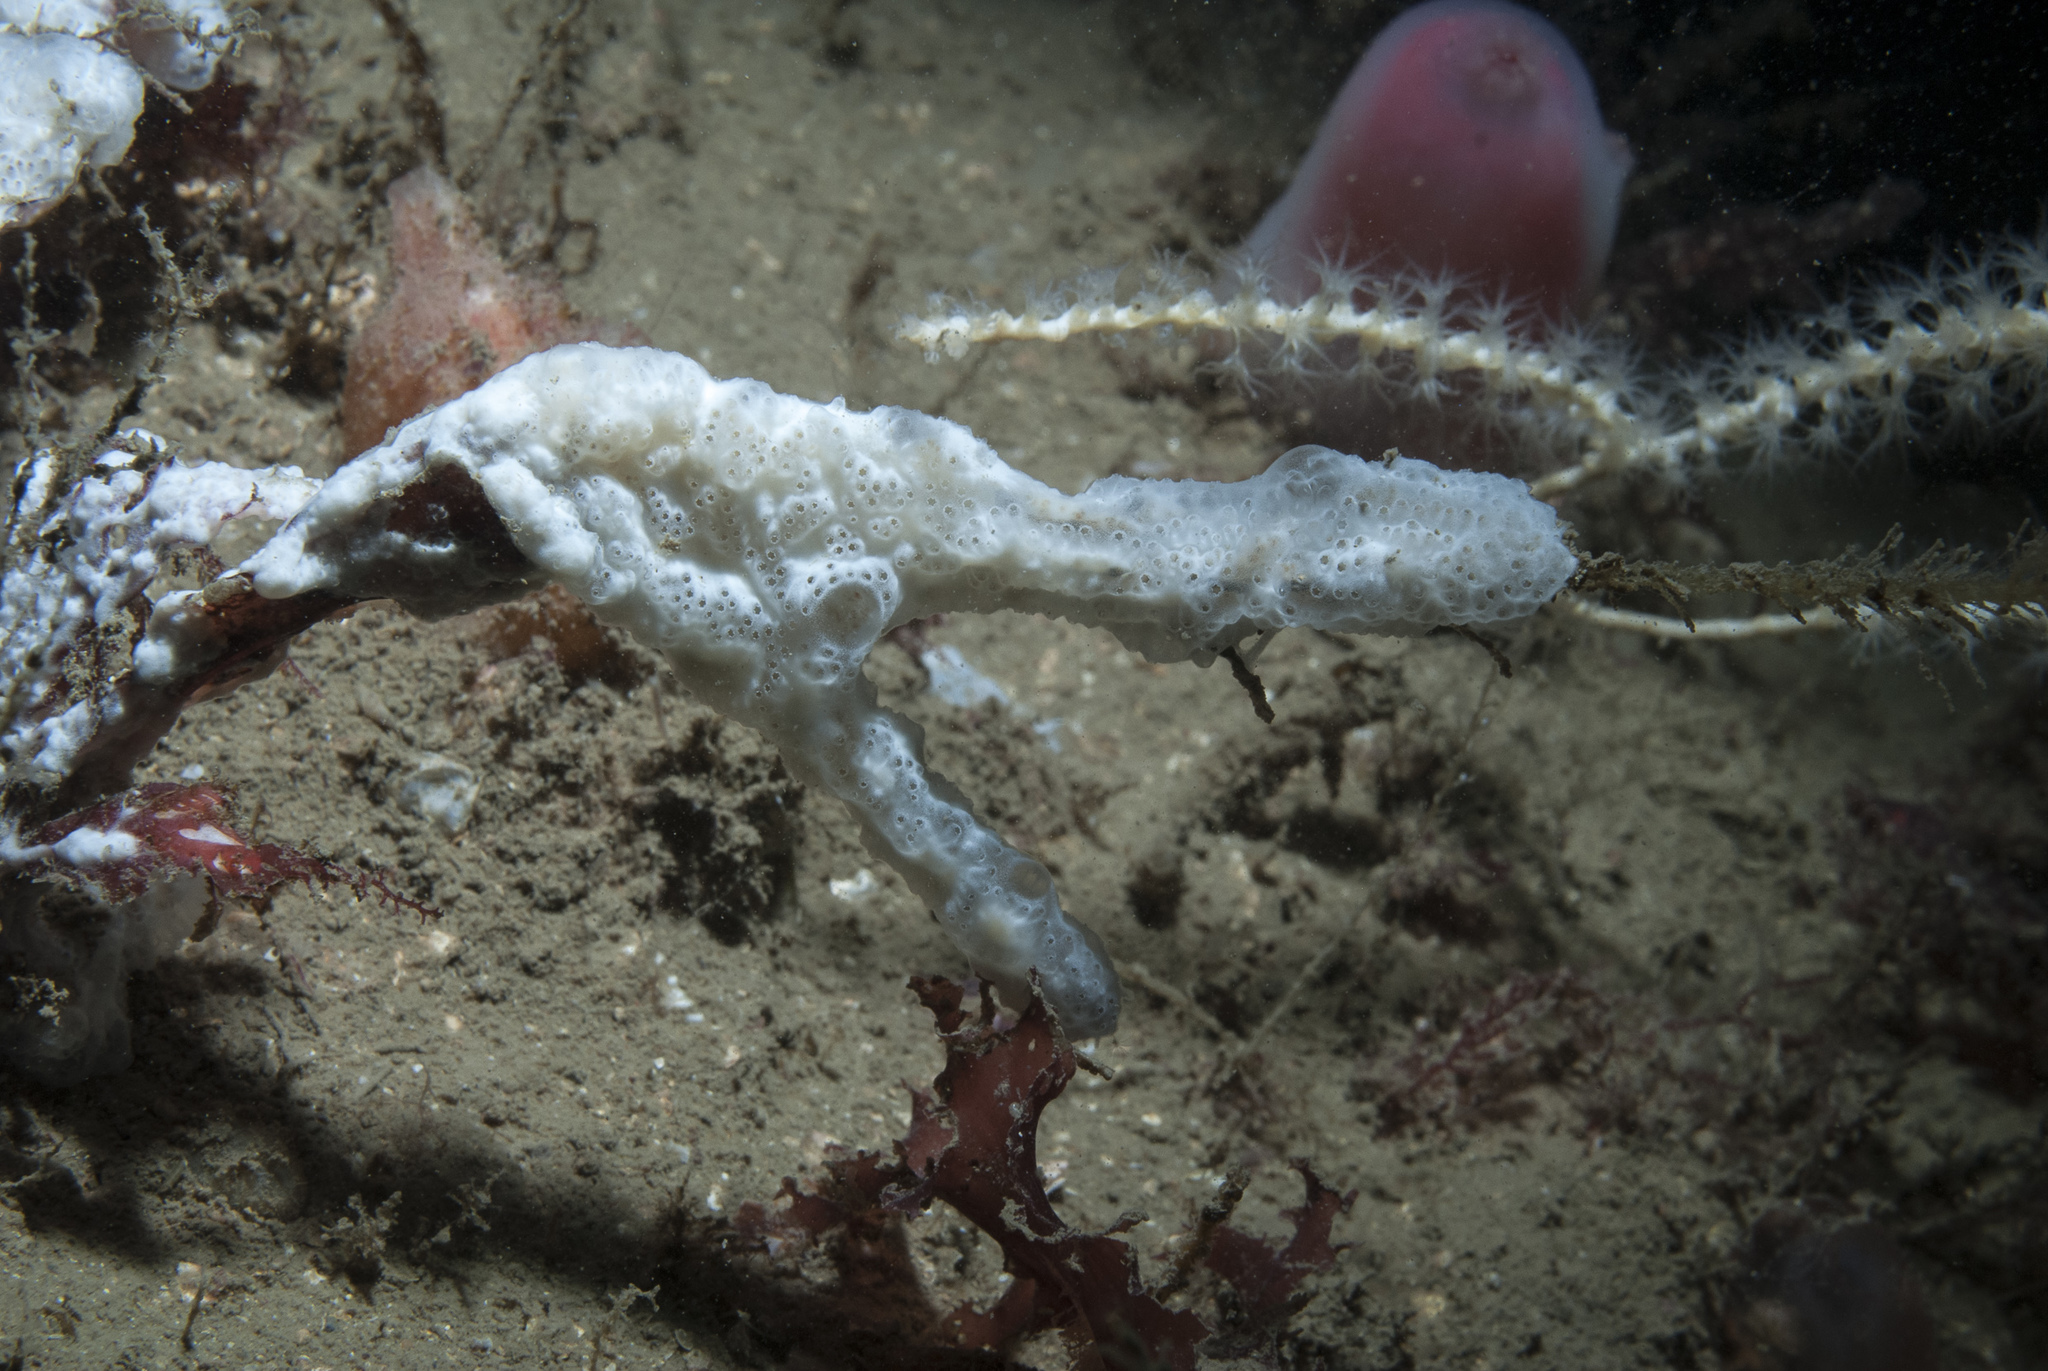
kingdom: Animalia
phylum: Chordata
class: Ascidiacea
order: Aplousobranchia
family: Didemnidae
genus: Trididemnum
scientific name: Trididemnum cereum
